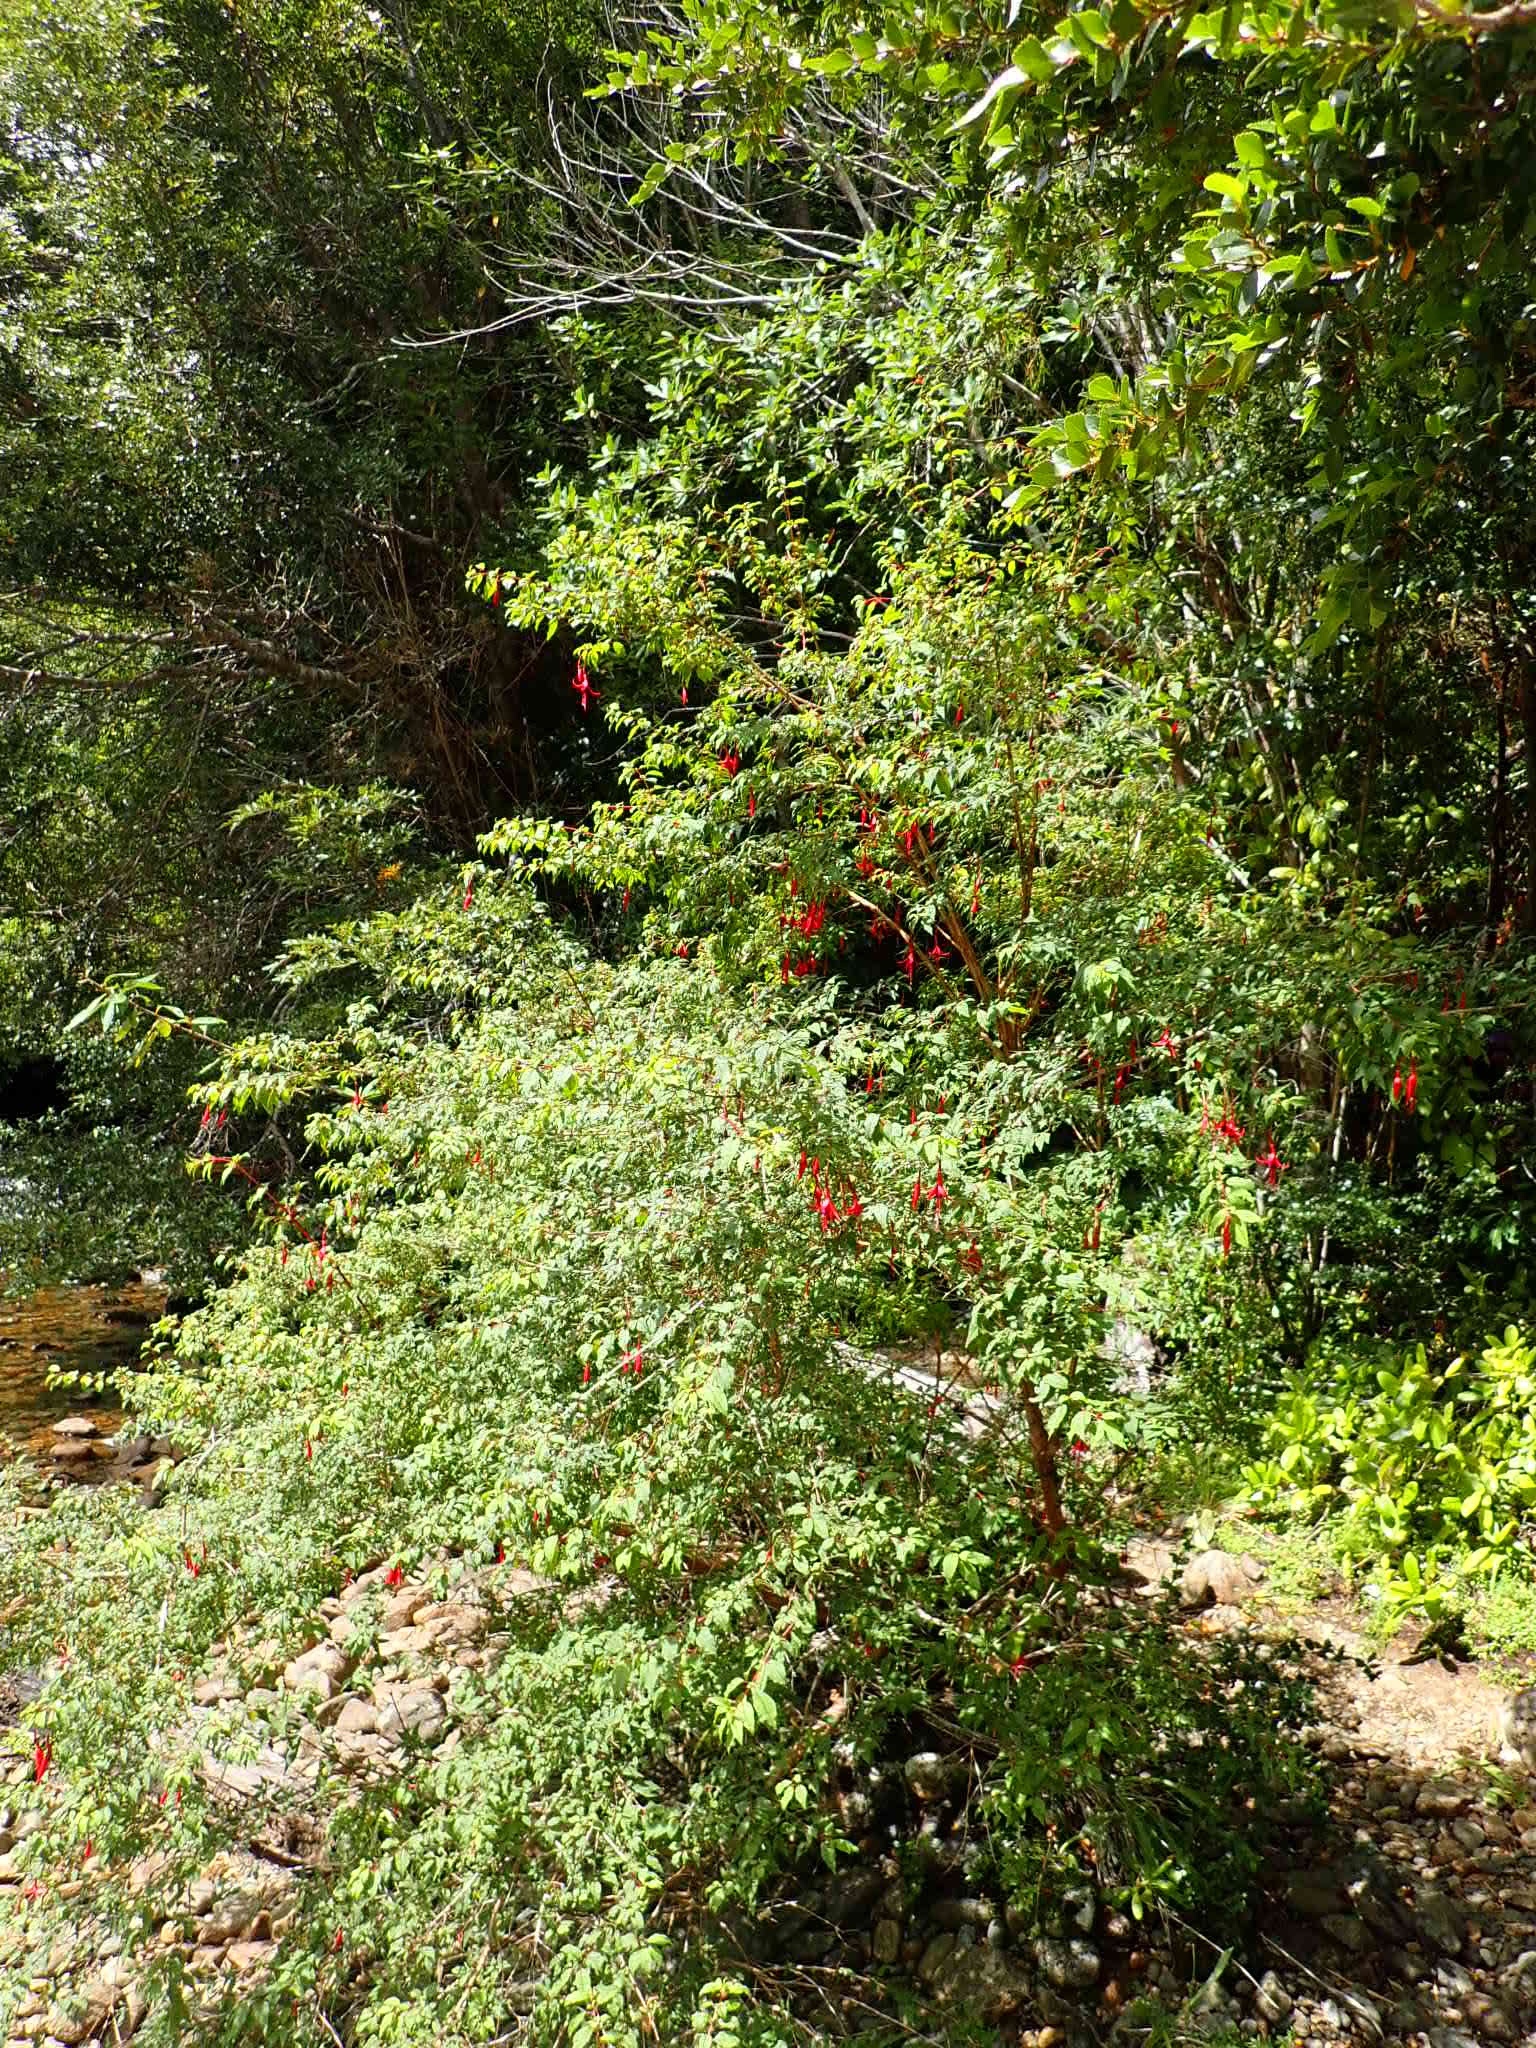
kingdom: Plantae
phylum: Tracheophyta
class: Magnoliopsida
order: Myrtales
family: Onagraceae
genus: Fuchsia
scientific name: Fuchsia magellanica
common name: Hardy fuchsia
